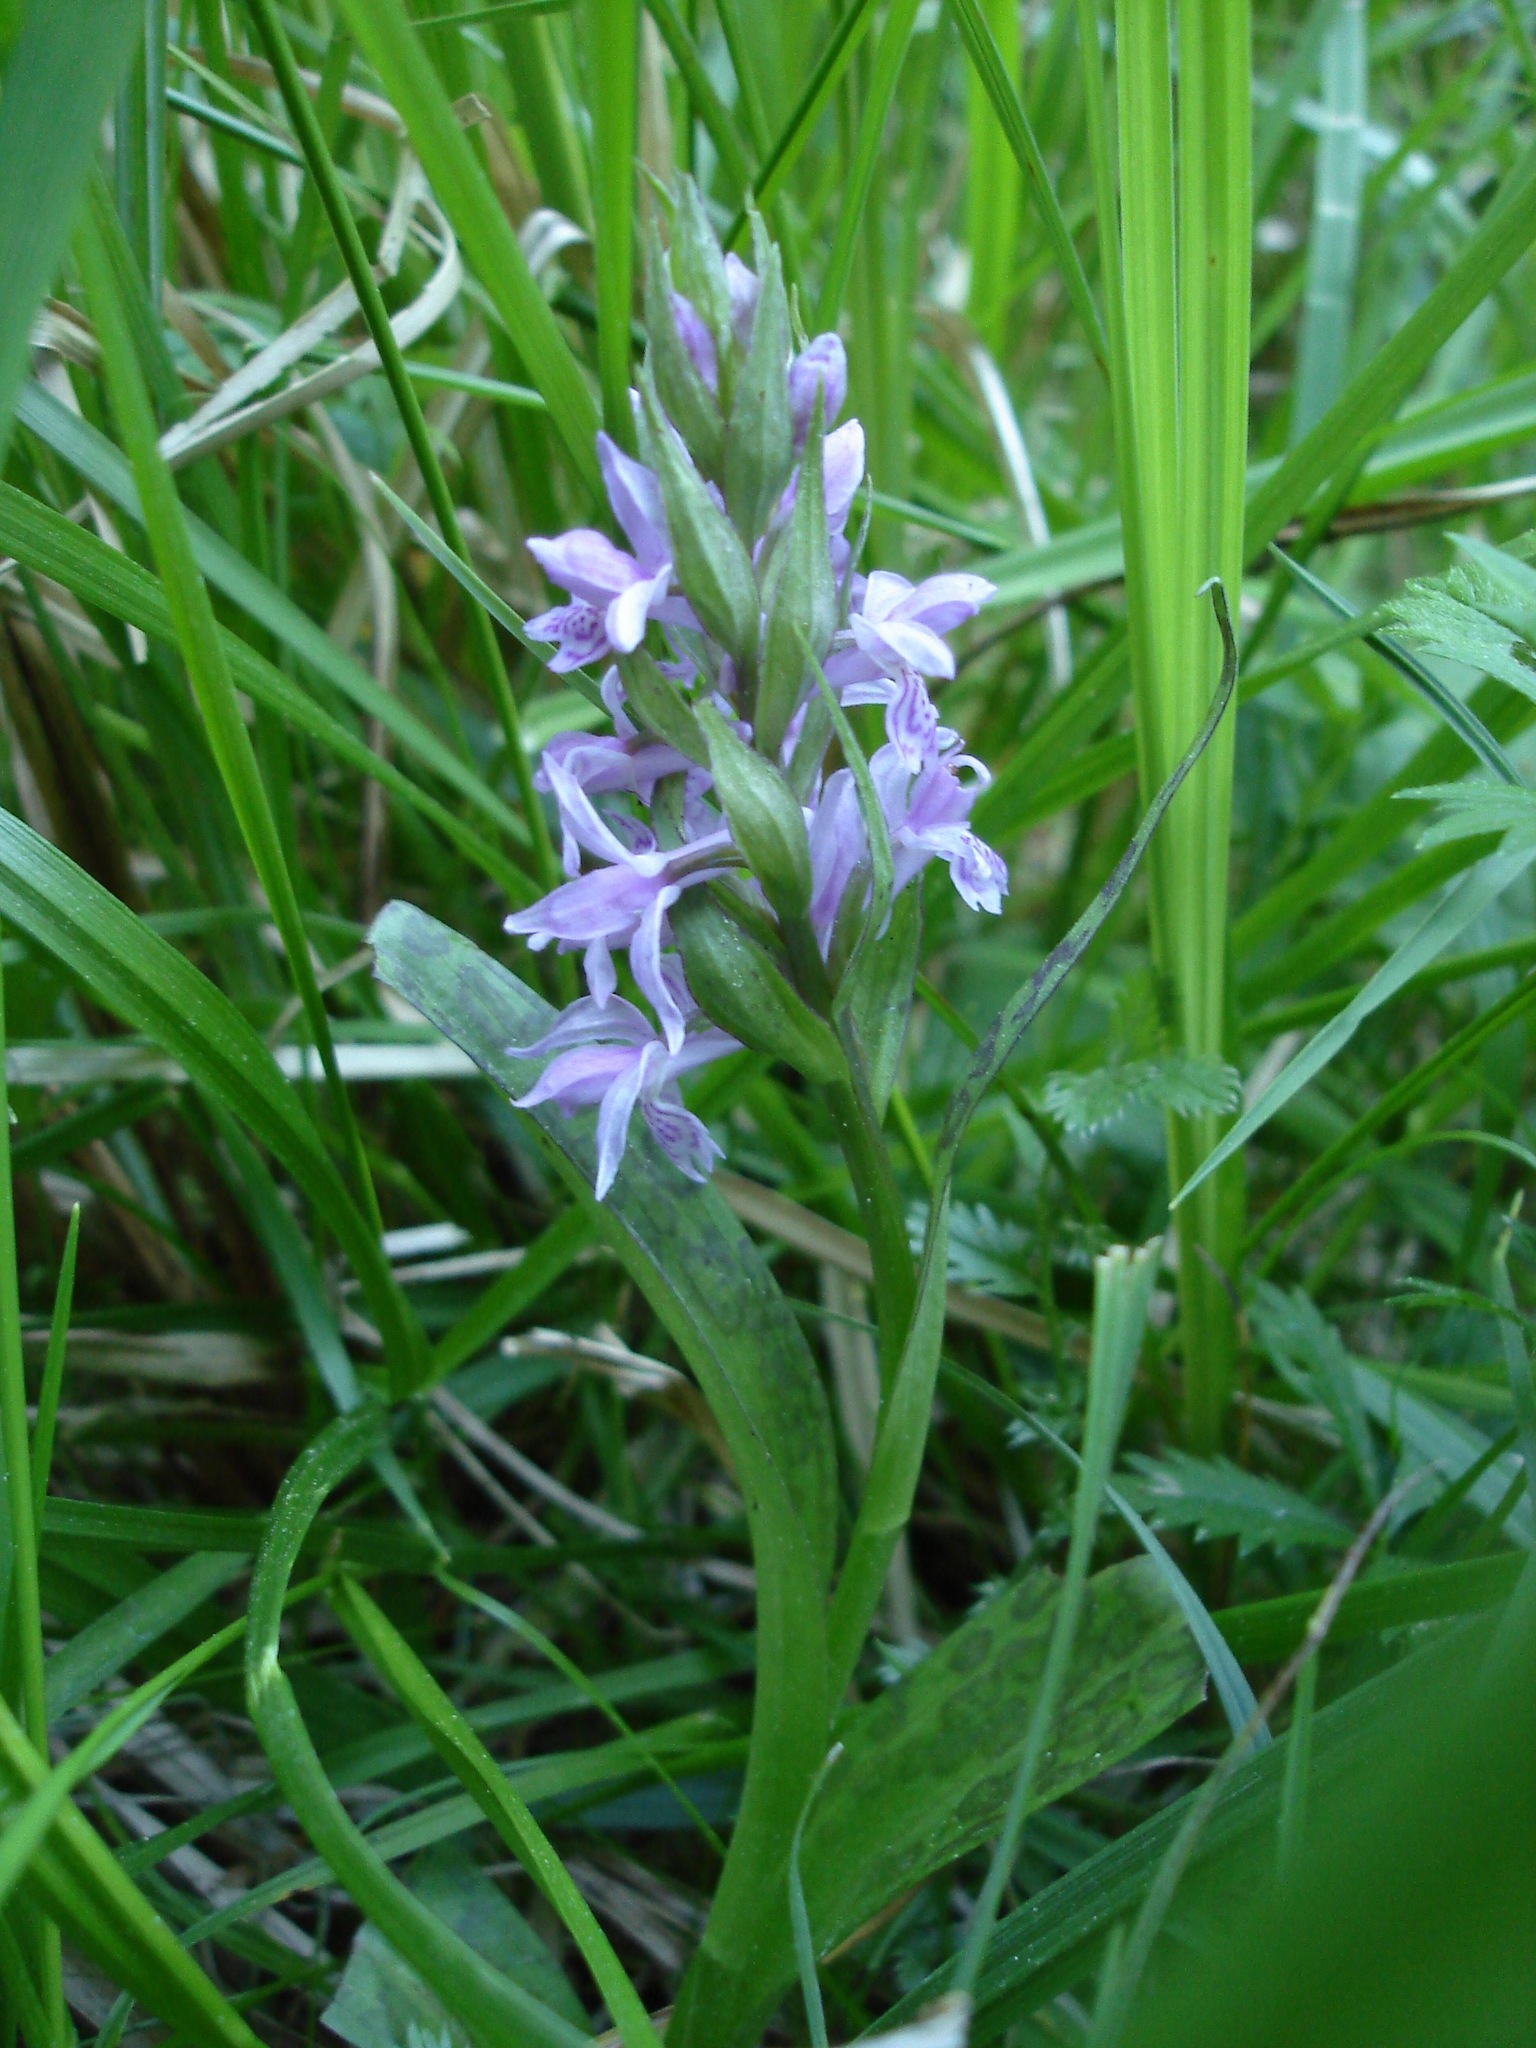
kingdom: Plantae
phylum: Tracheophyta
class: Liliopsida
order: Asparagales
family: Orchidaceae
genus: Dactylorhiza
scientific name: Dactylorhiza majalis
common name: Marsh orchid
